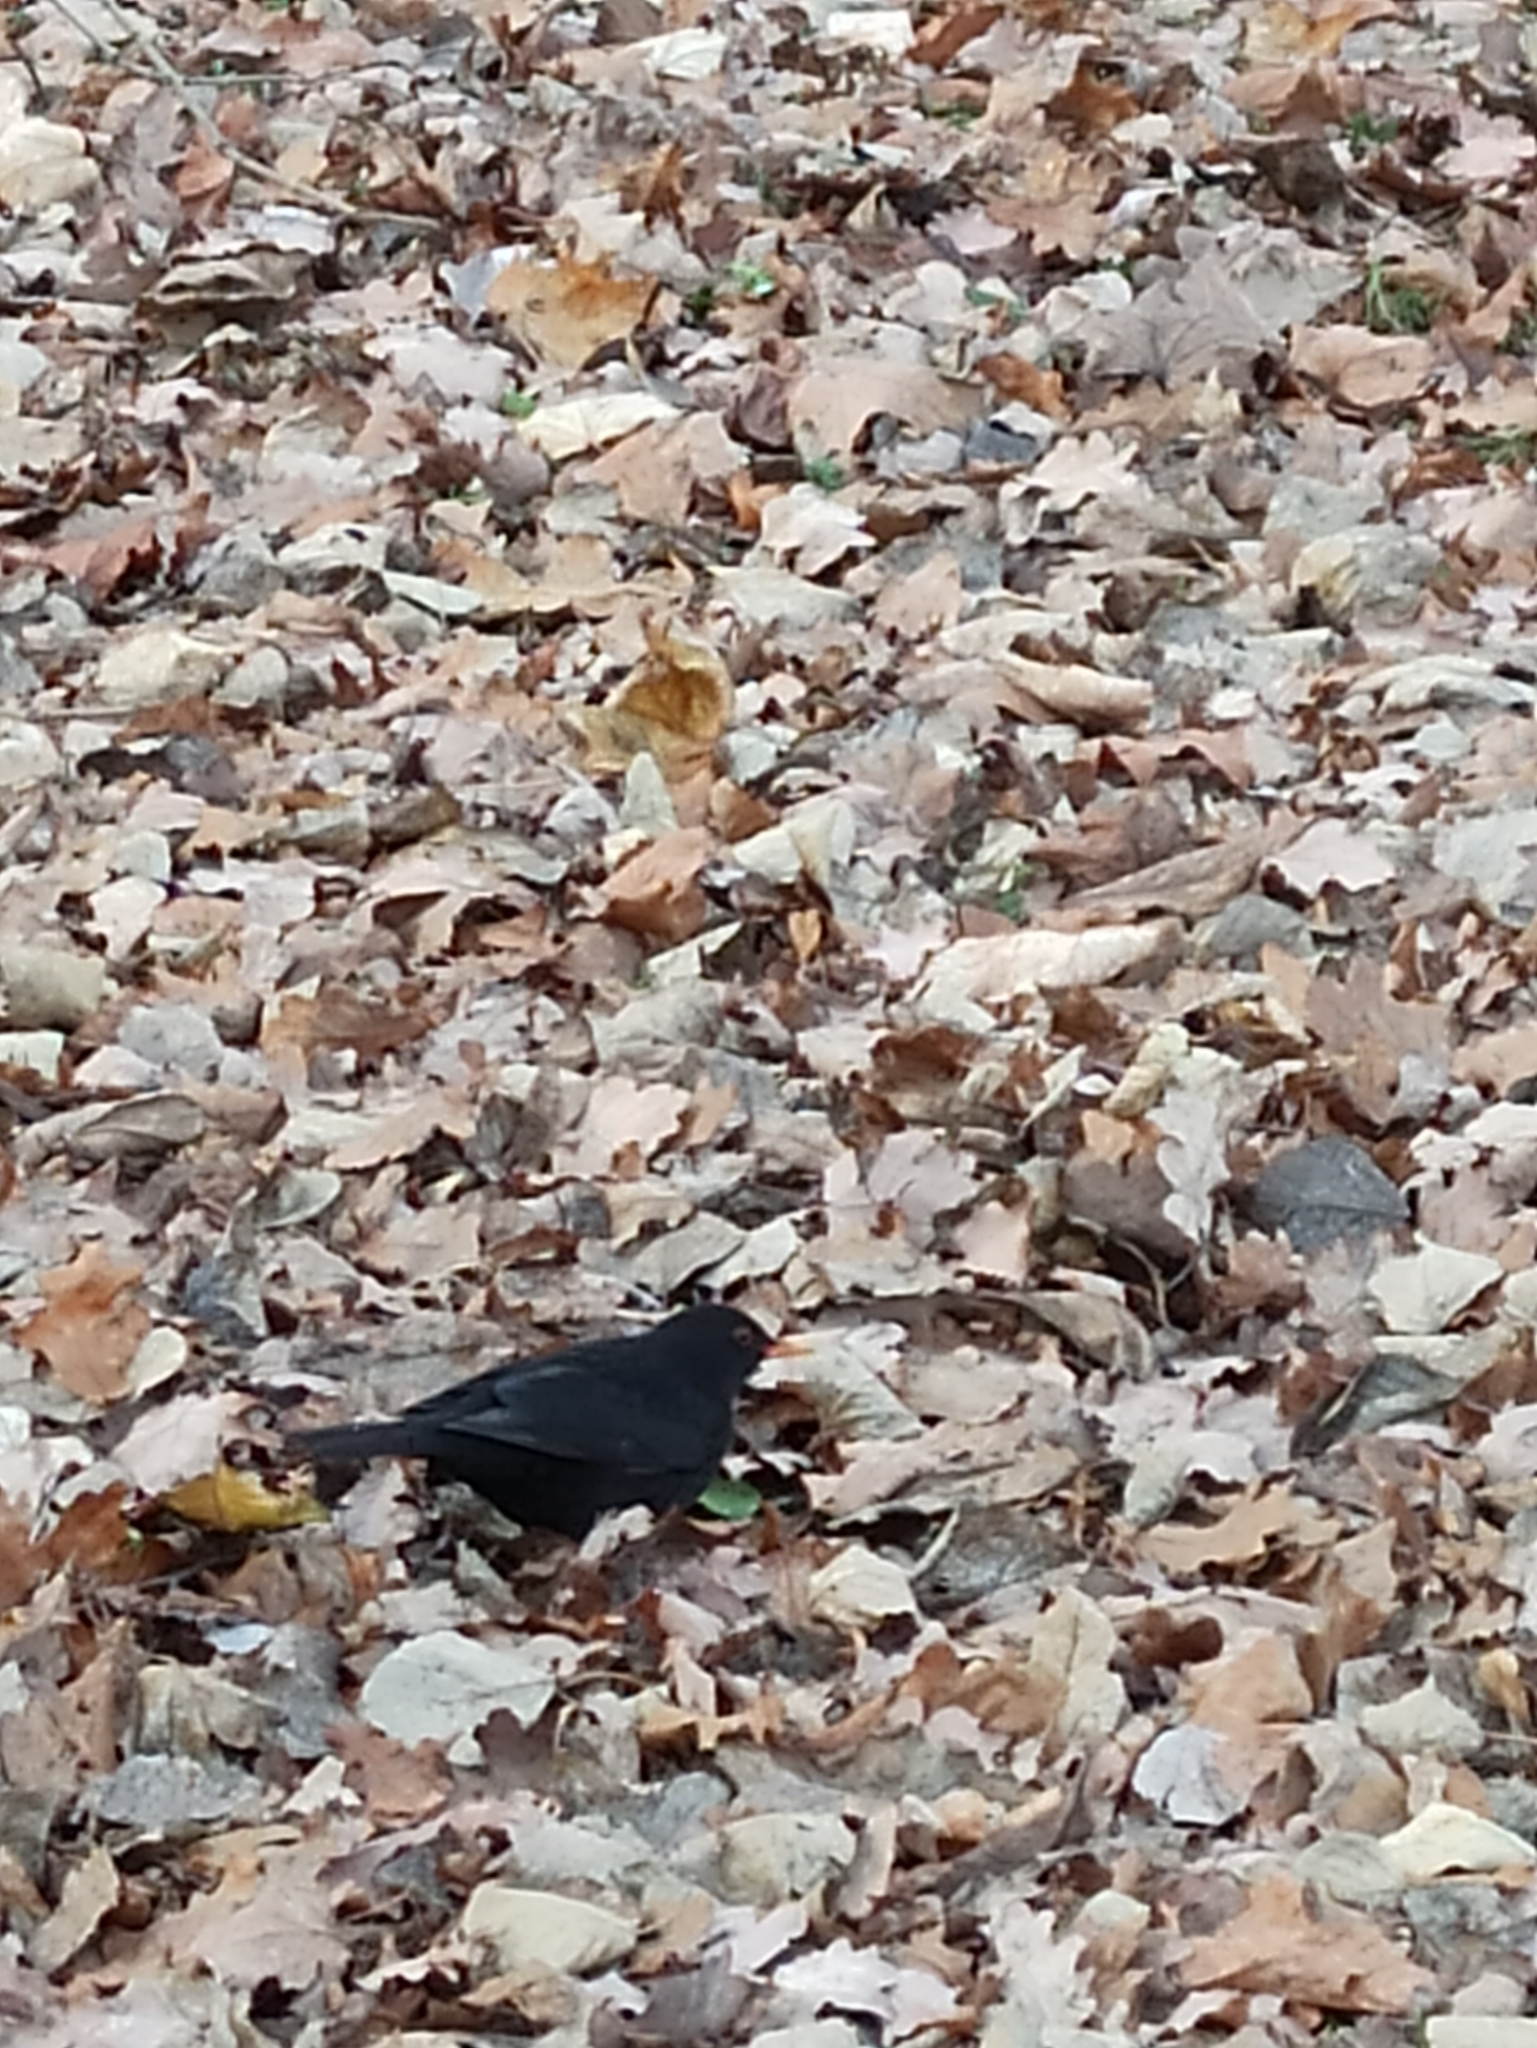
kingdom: Animalia
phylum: Chordata
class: Aves
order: Passeriformes
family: Turdidae
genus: Turdus
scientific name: Turdus merula
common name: Common blackbird
